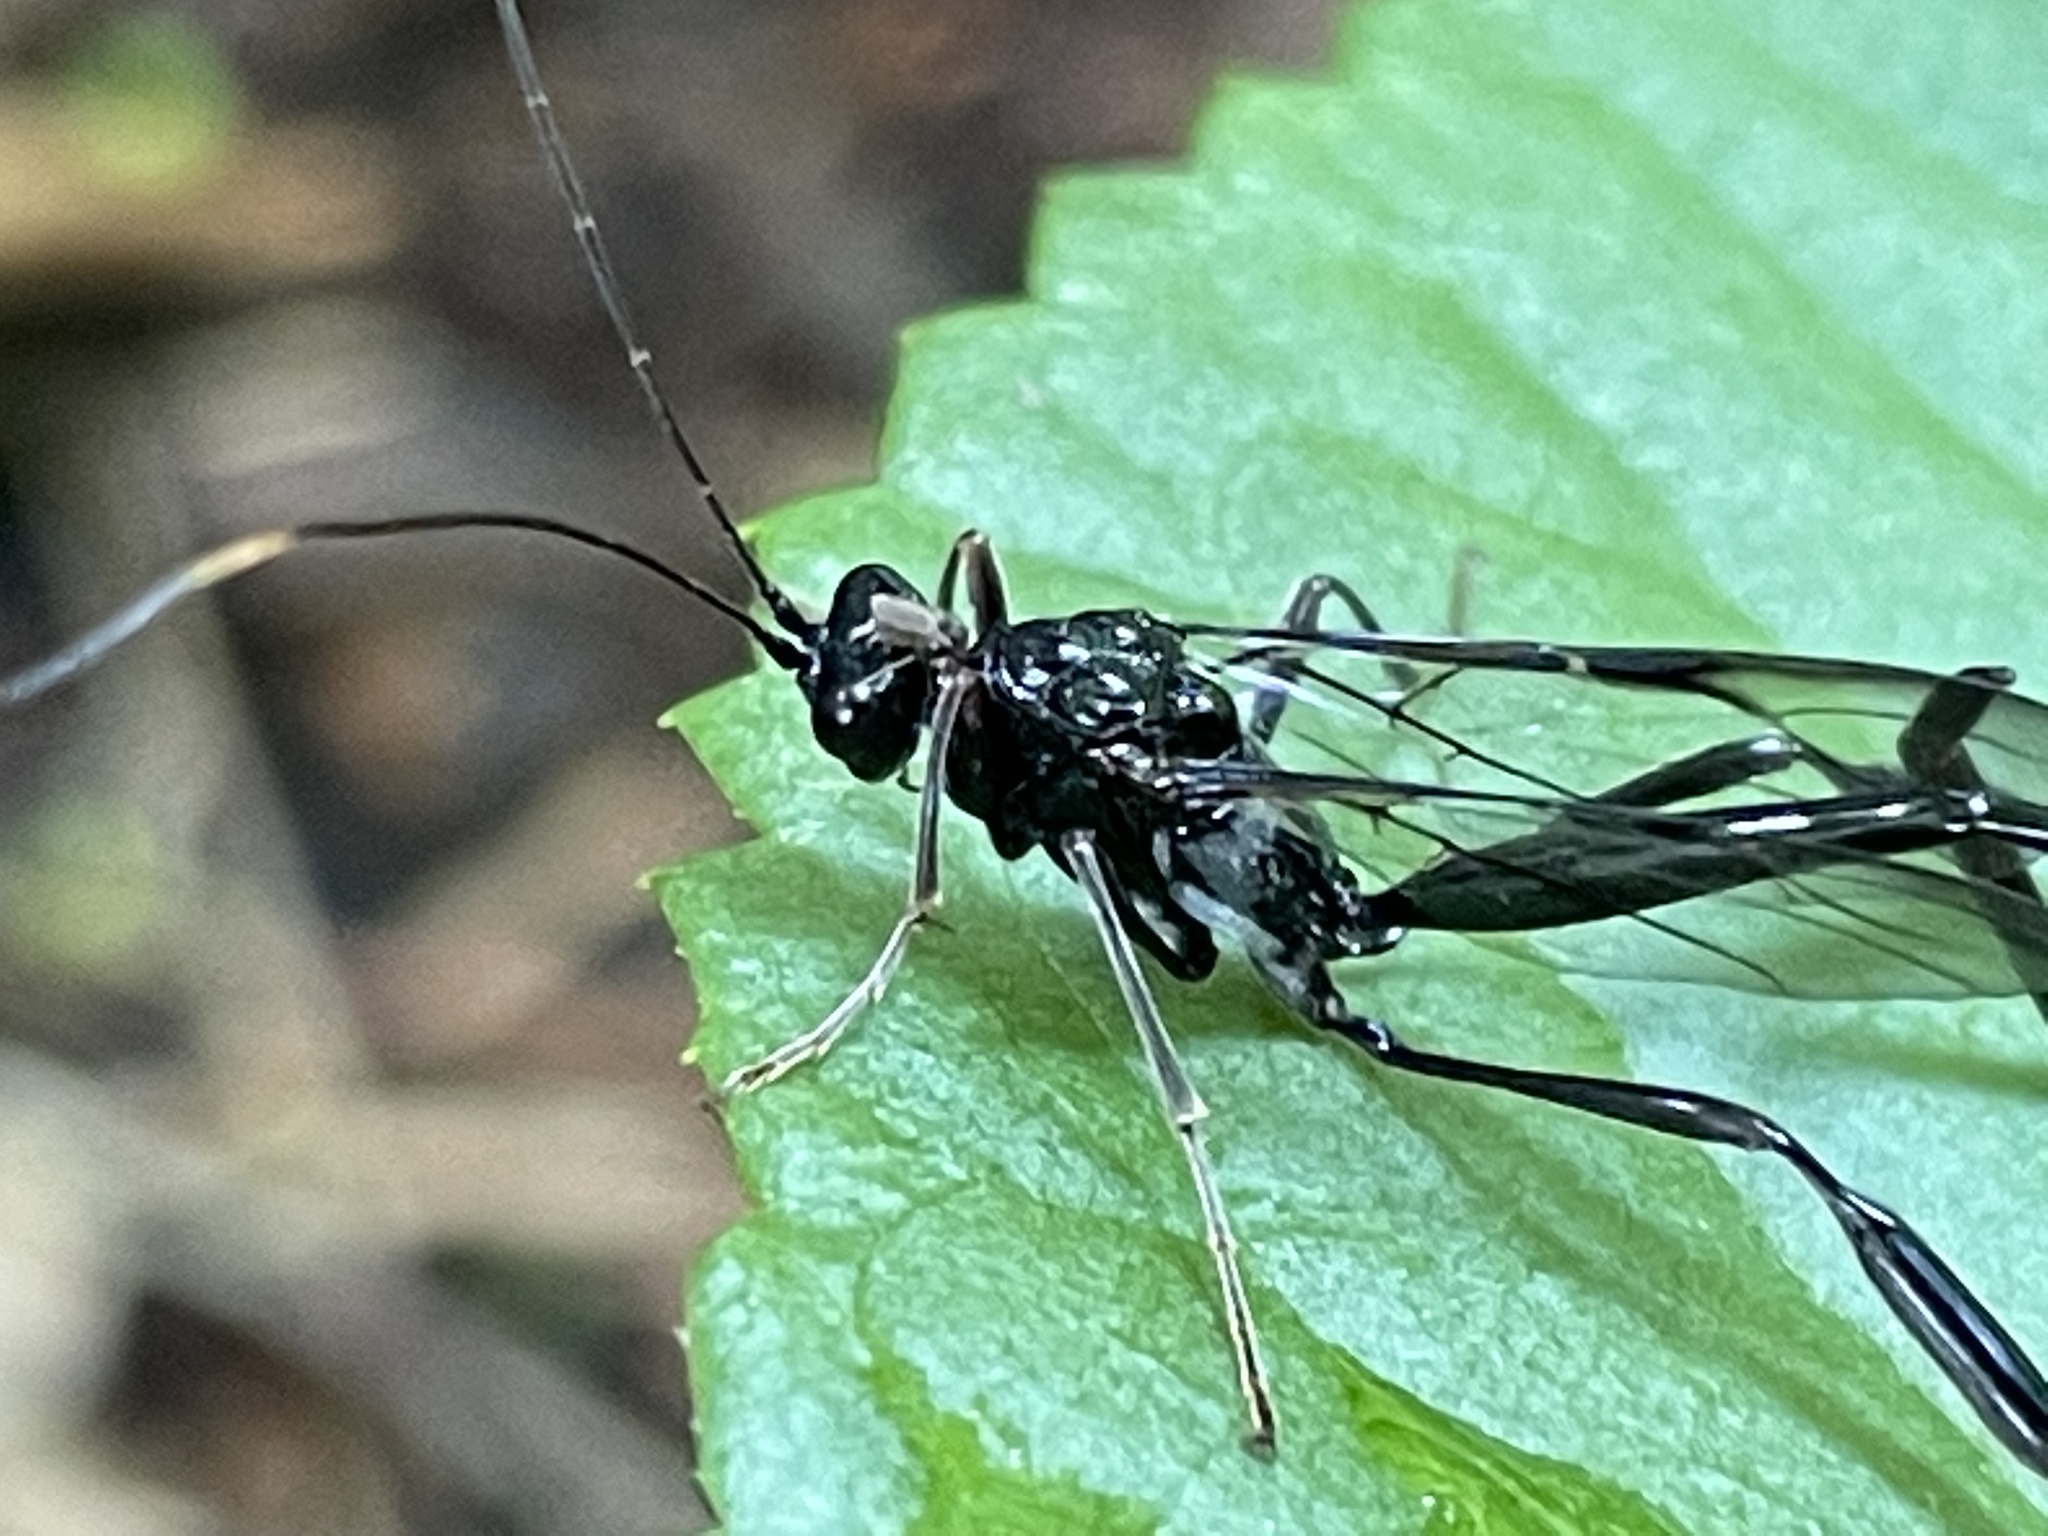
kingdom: Animalia
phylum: Arthropoda
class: Insecta
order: Hymenoptera
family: Pelecinidae
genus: Pelecinus
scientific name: Pelecinus polyturator
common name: American pelecinid wasp
